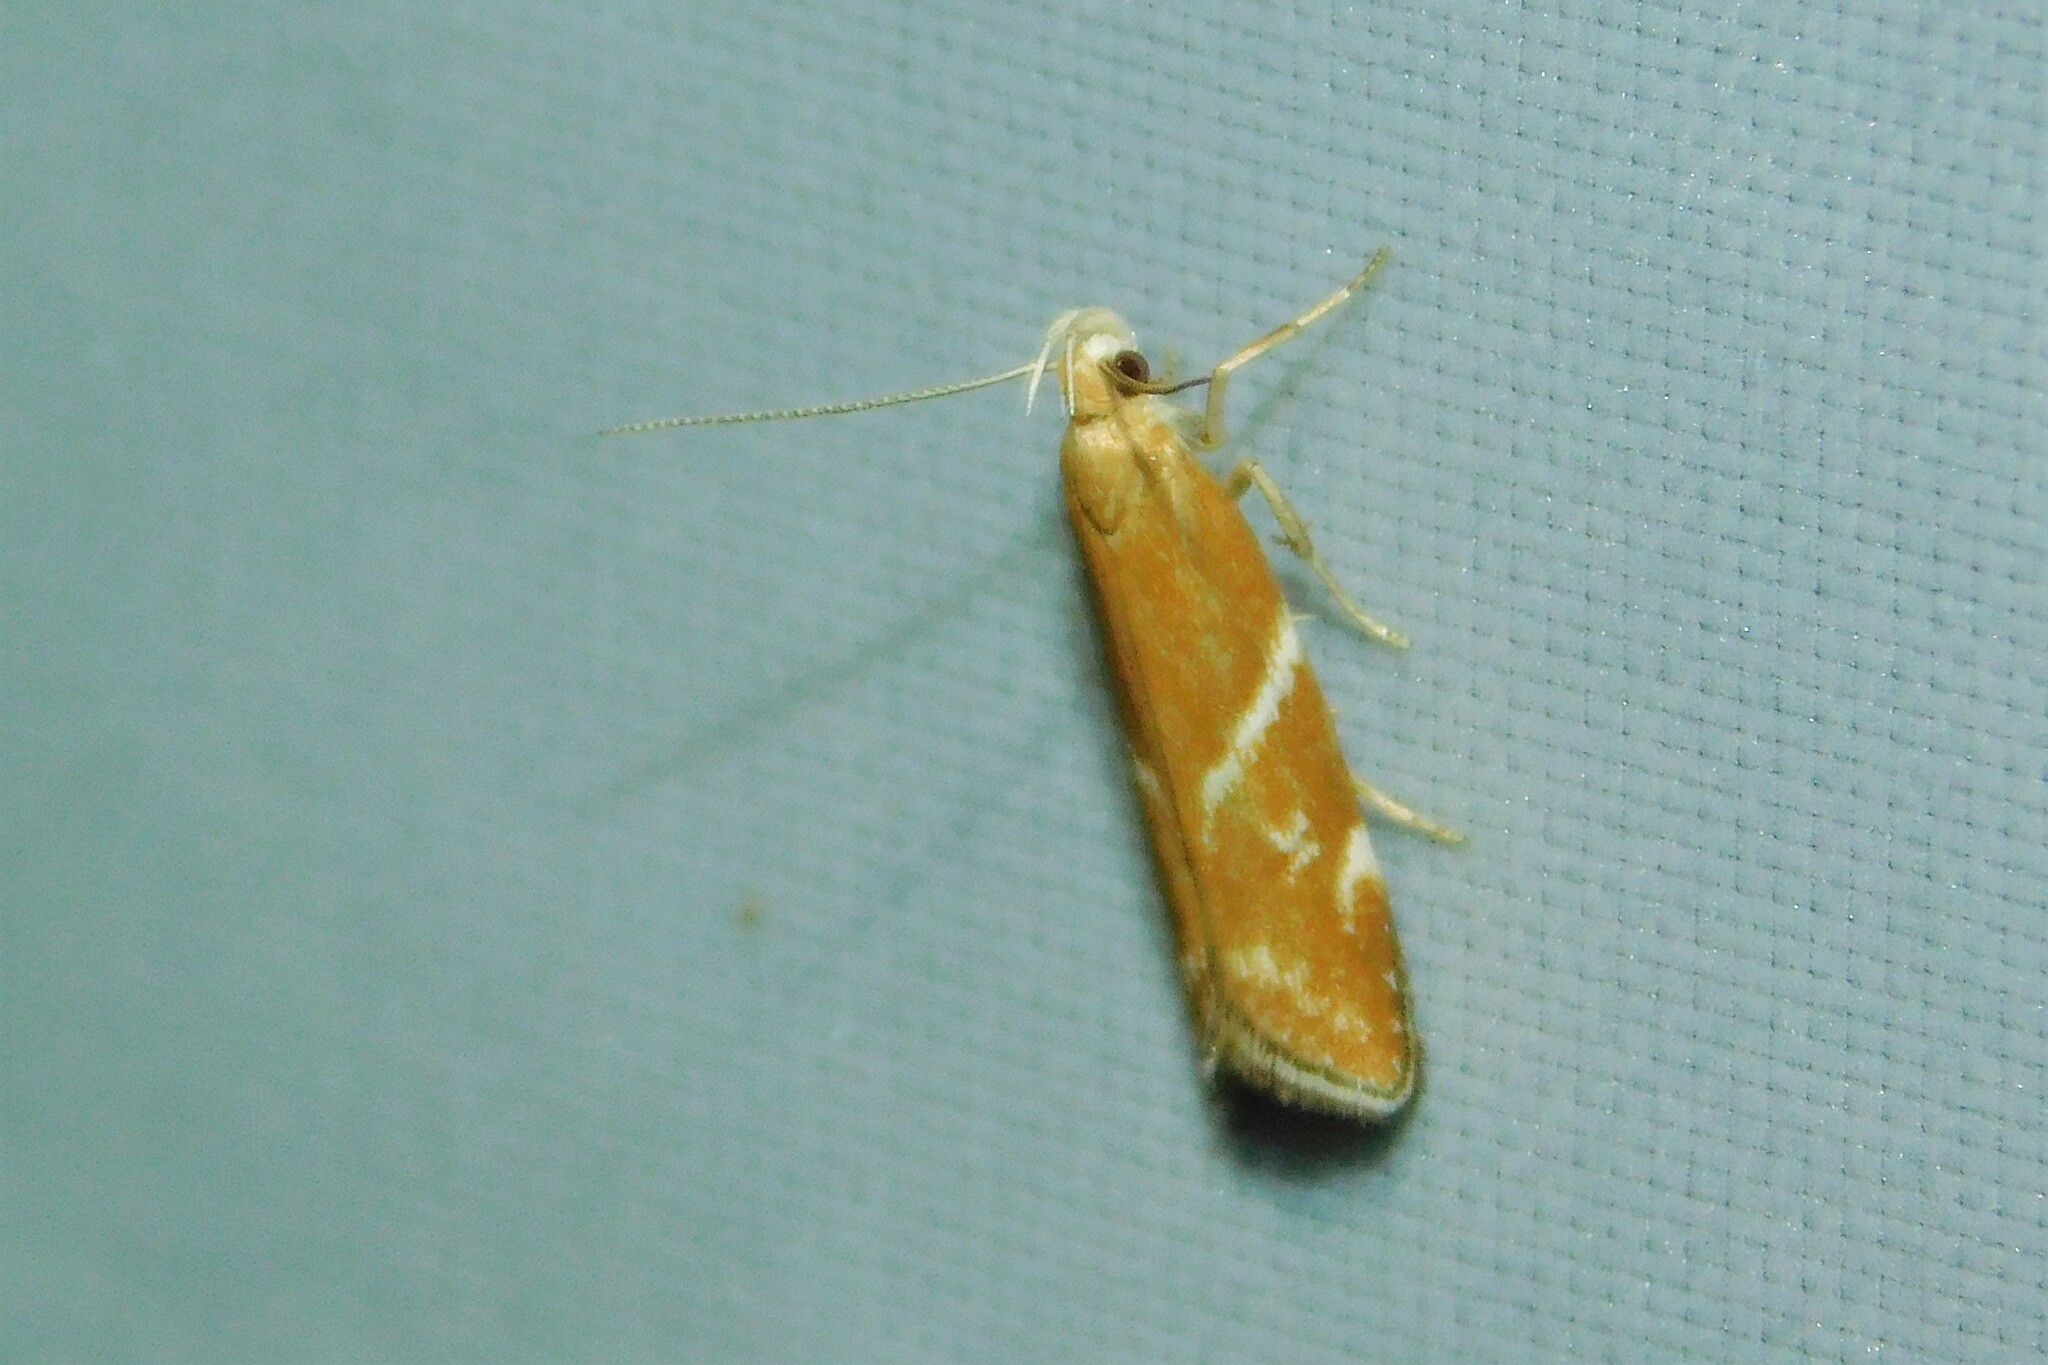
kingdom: Animalia
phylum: Arthropoda
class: Insecta
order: Lepidoptera
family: Depressariidae
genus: Orophia
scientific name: Orophia sordidella
